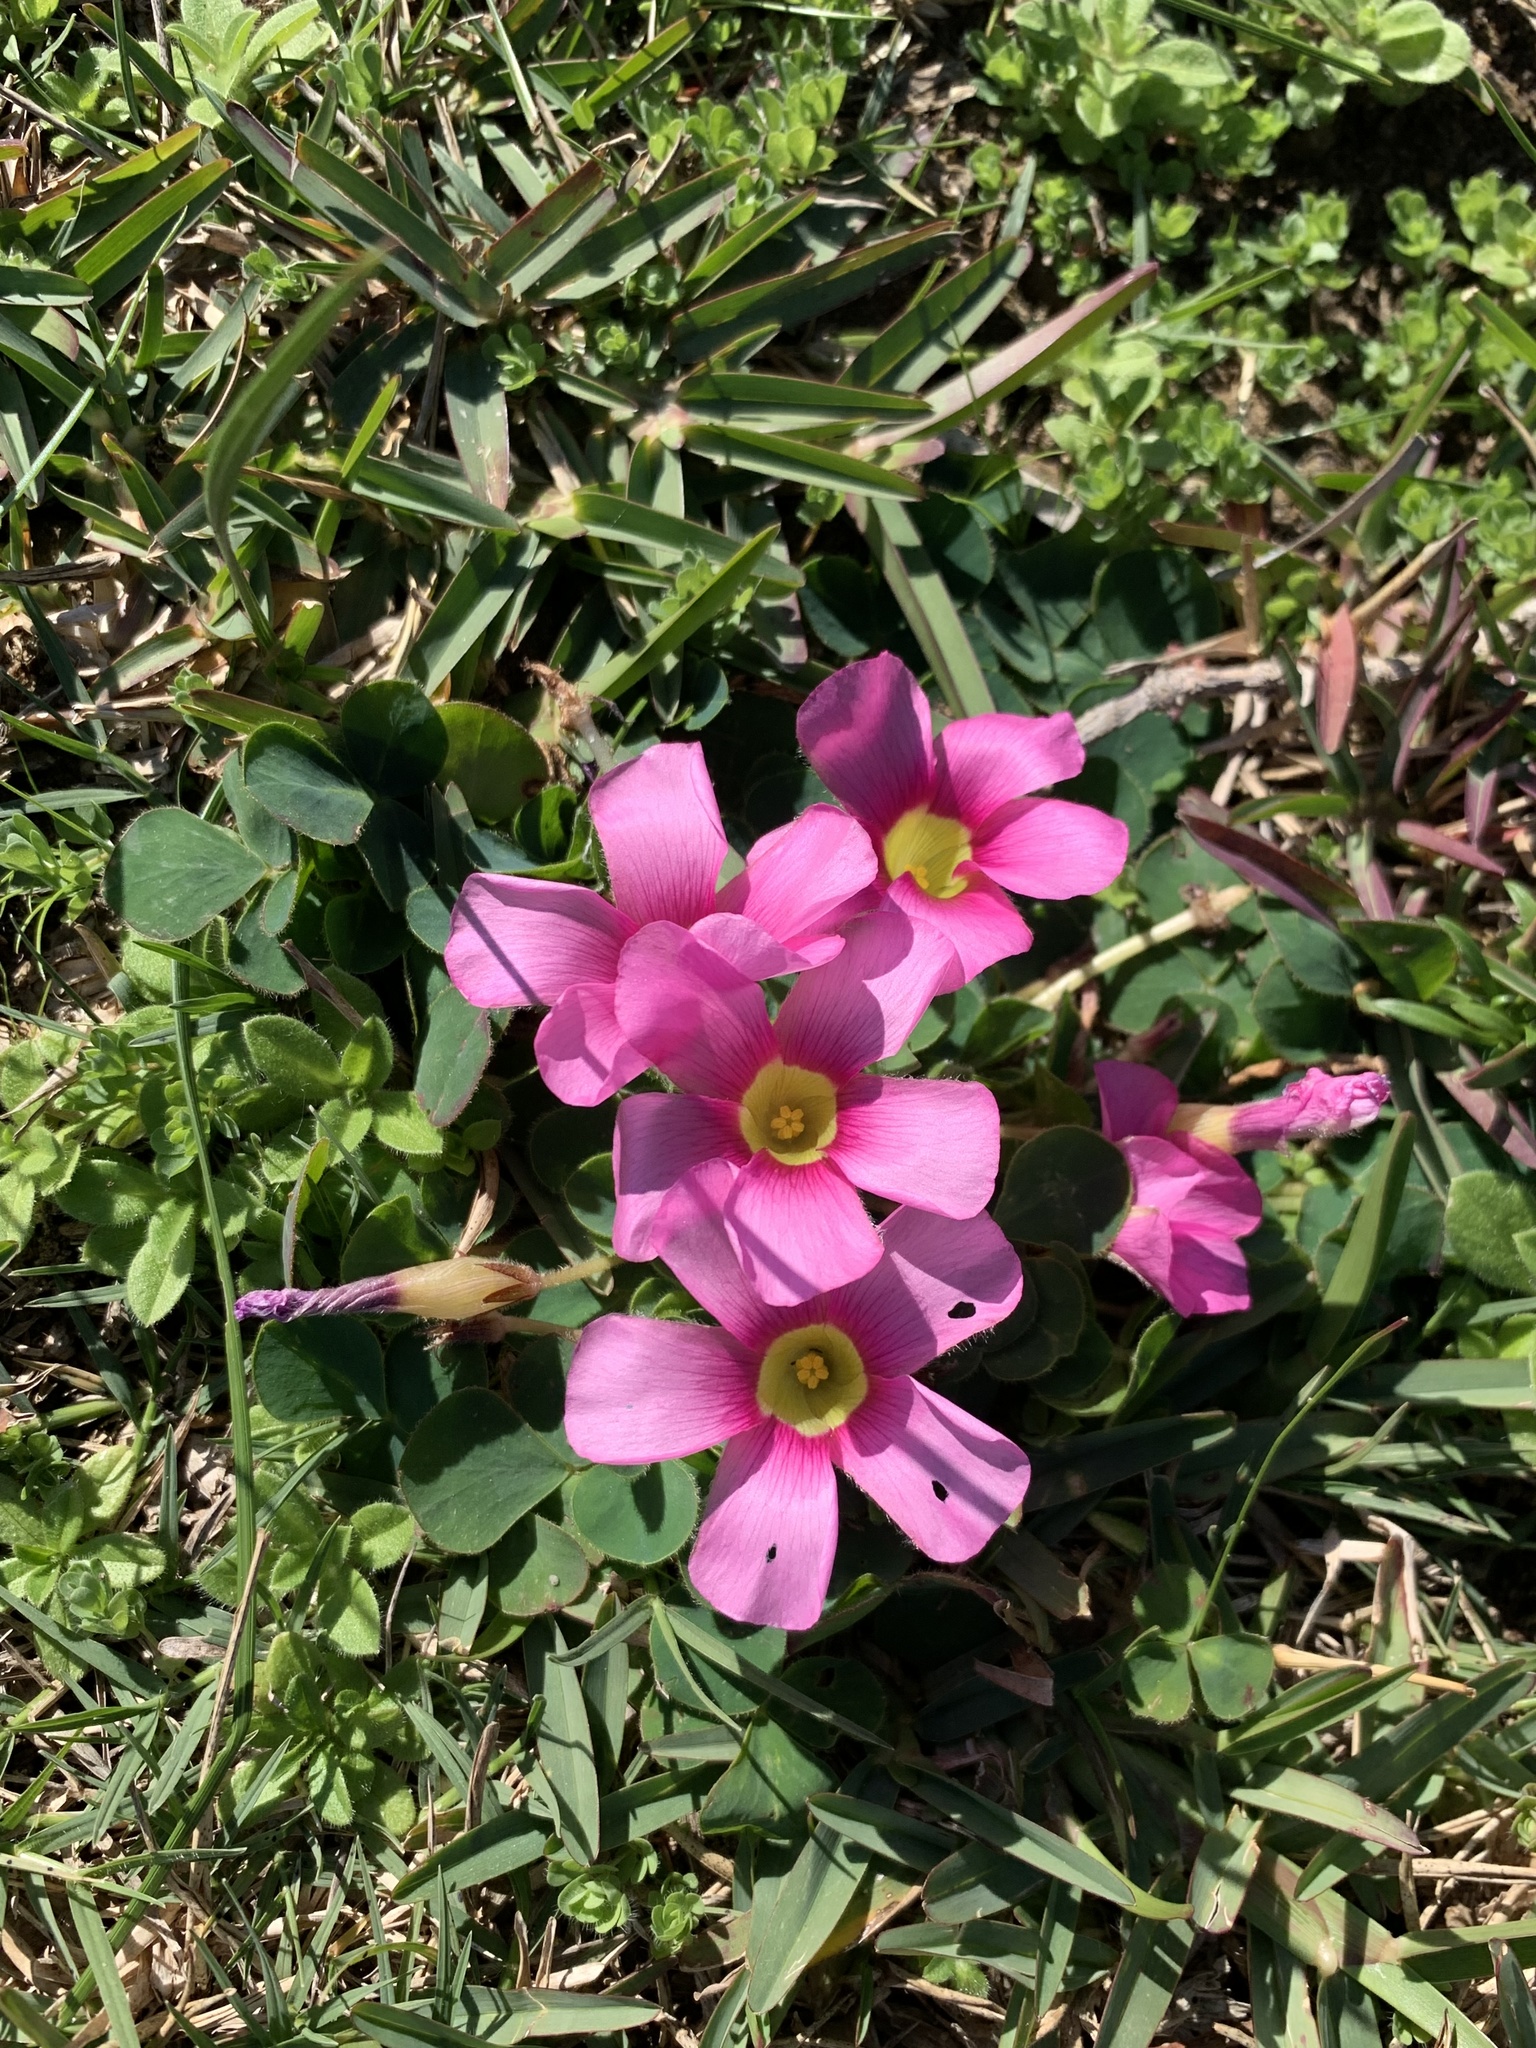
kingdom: Plantae
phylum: Tracheophyta
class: Magnoliopsida
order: Oxalidales
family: Oxalidaceae
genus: Oxalis
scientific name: Oxalis purpurea
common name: Purple woodsorrel
